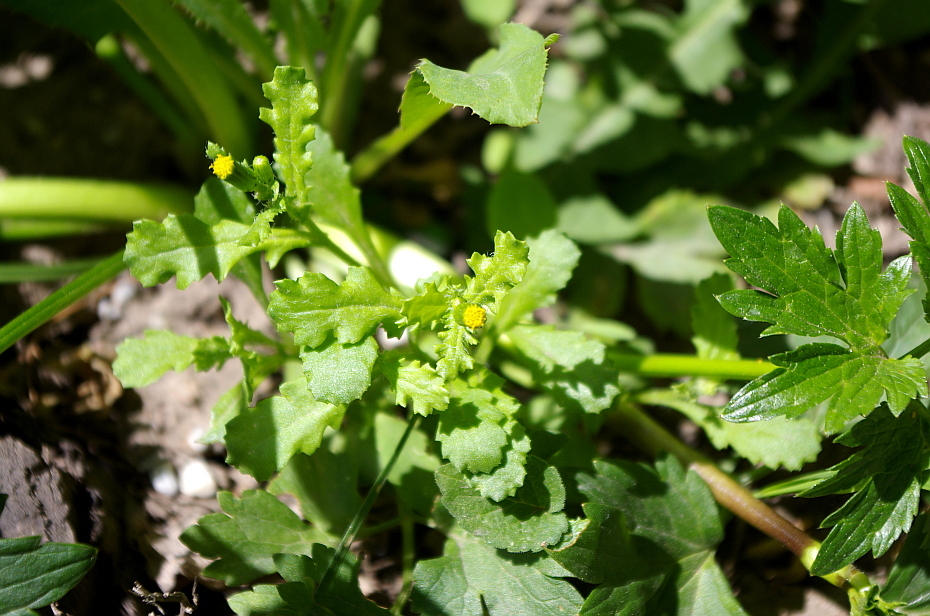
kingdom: Plantae
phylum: Tracheophyta
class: Magnoliopsida
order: Asterales
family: Asteraceae
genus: Senecio
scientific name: Senecio vulgaris
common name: Old-man-in-the-spring
